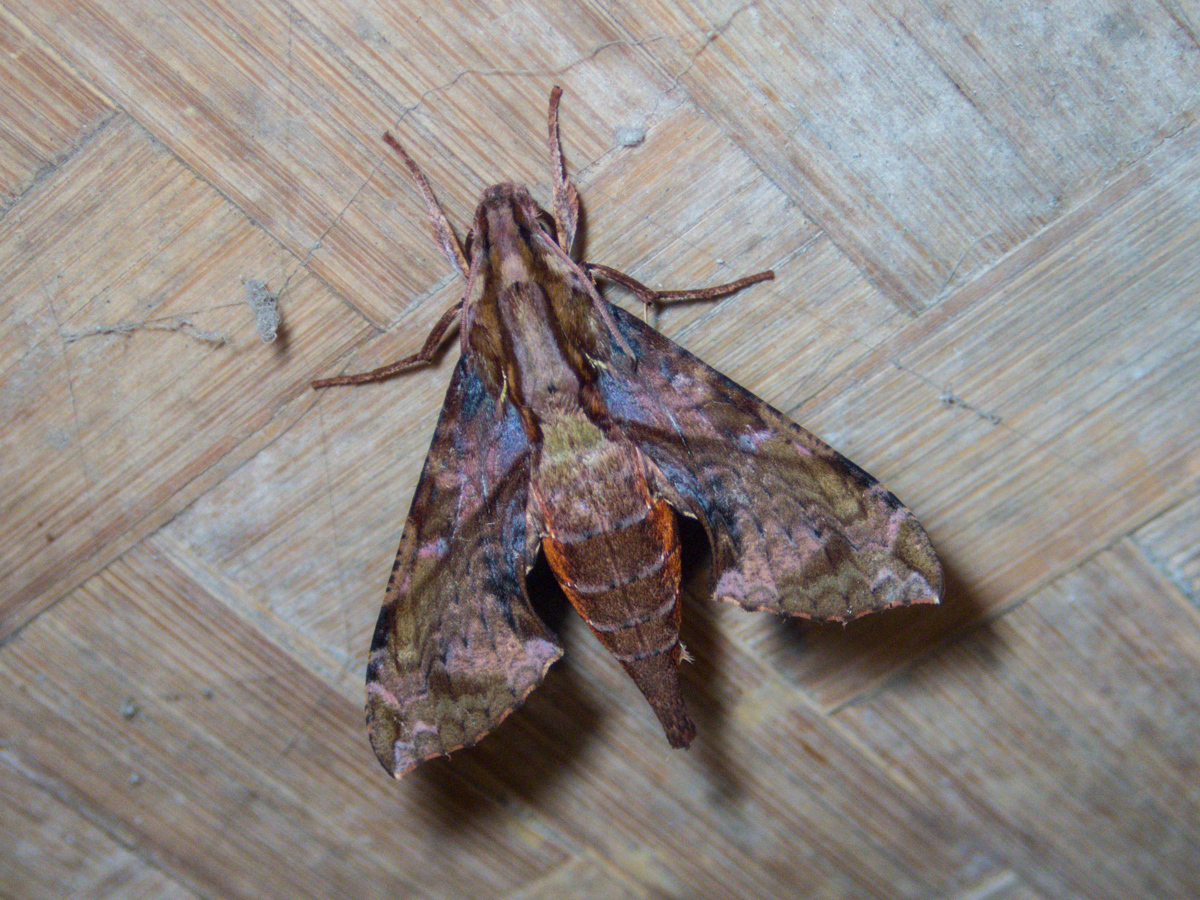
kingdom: Animalia
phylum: Arthropoda
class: Insecta
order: Lepidoptera
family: Sphingidae
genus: Eupanacra
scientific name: Eupanacra mydon
